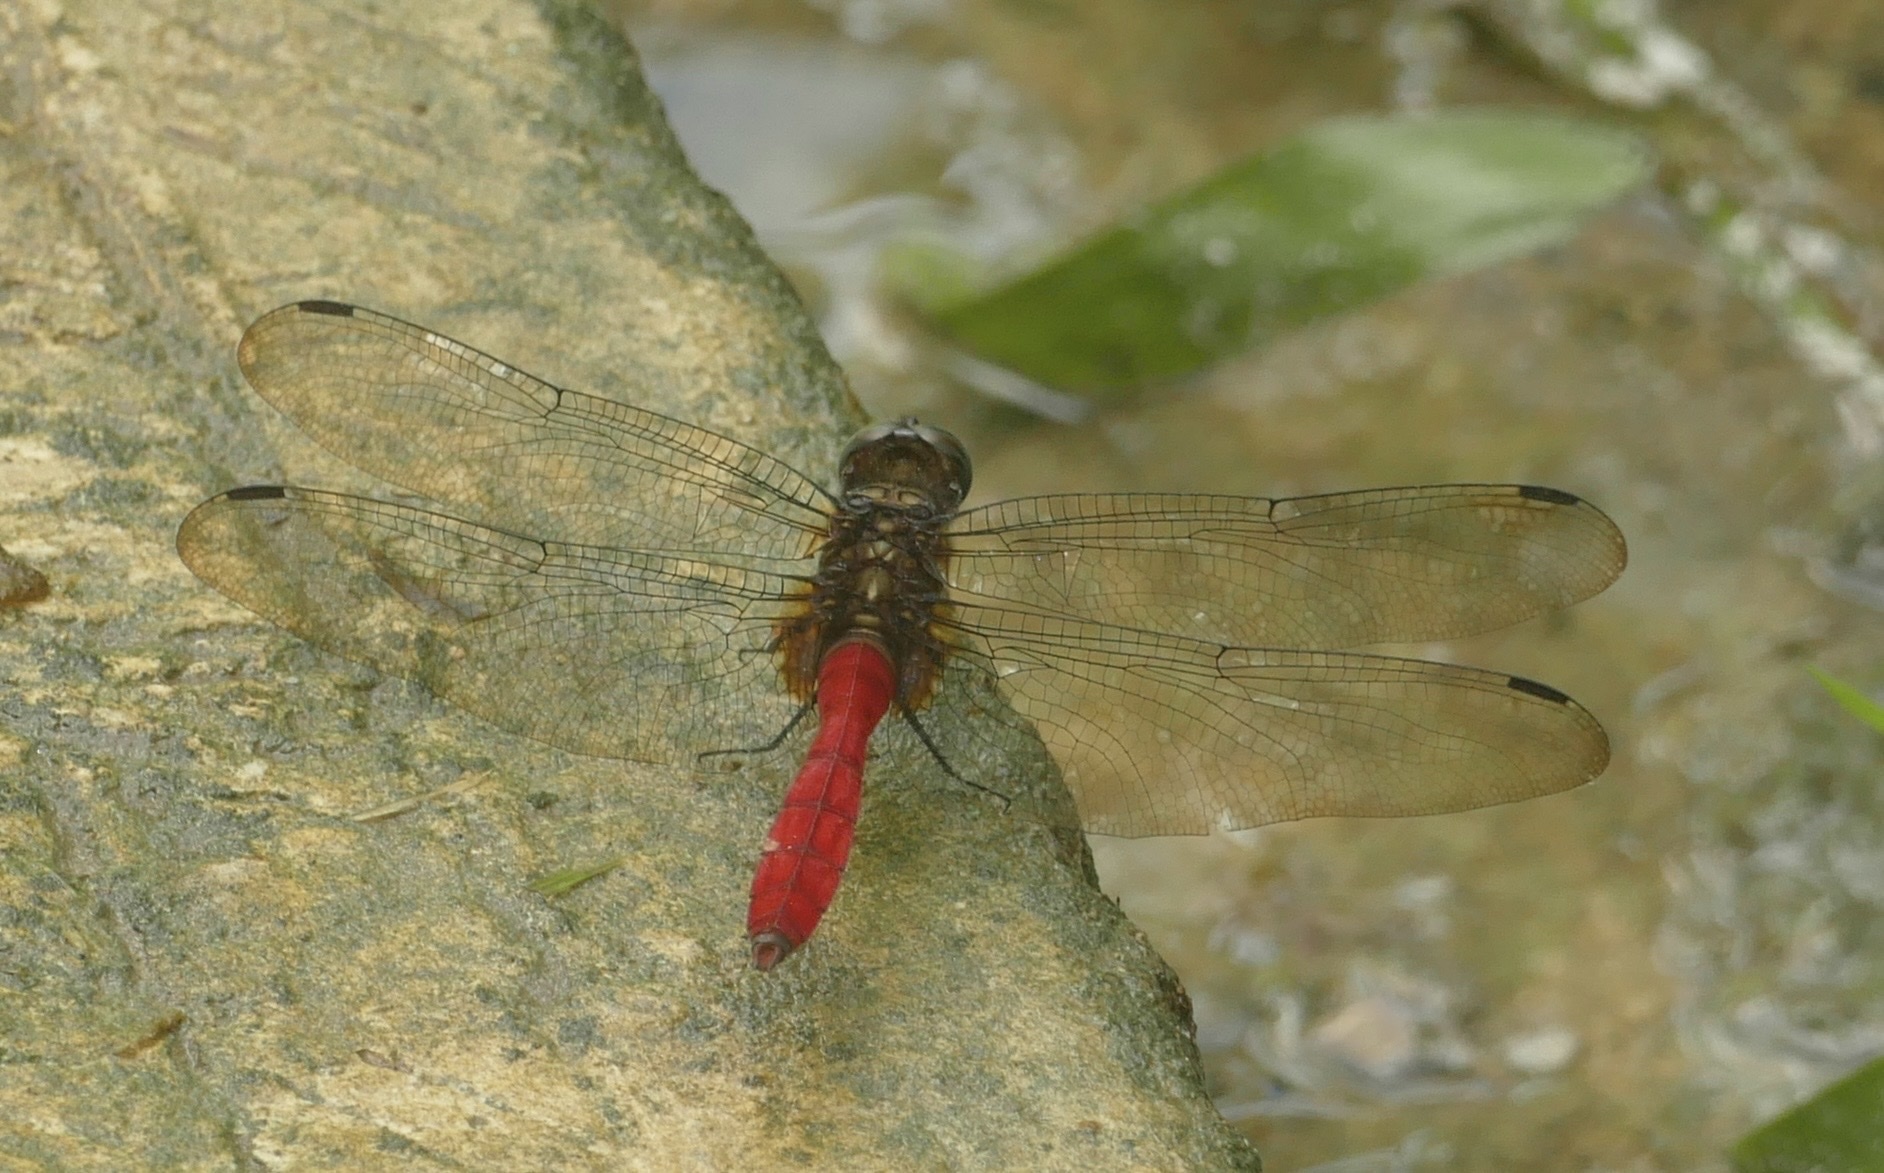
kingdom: Animalia
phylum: Arthropoda
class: Insecta
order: Odonata
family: Libellulidae
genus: Orthetrum
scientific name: Orthetrum villosovittatum
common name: Firery skimmer
